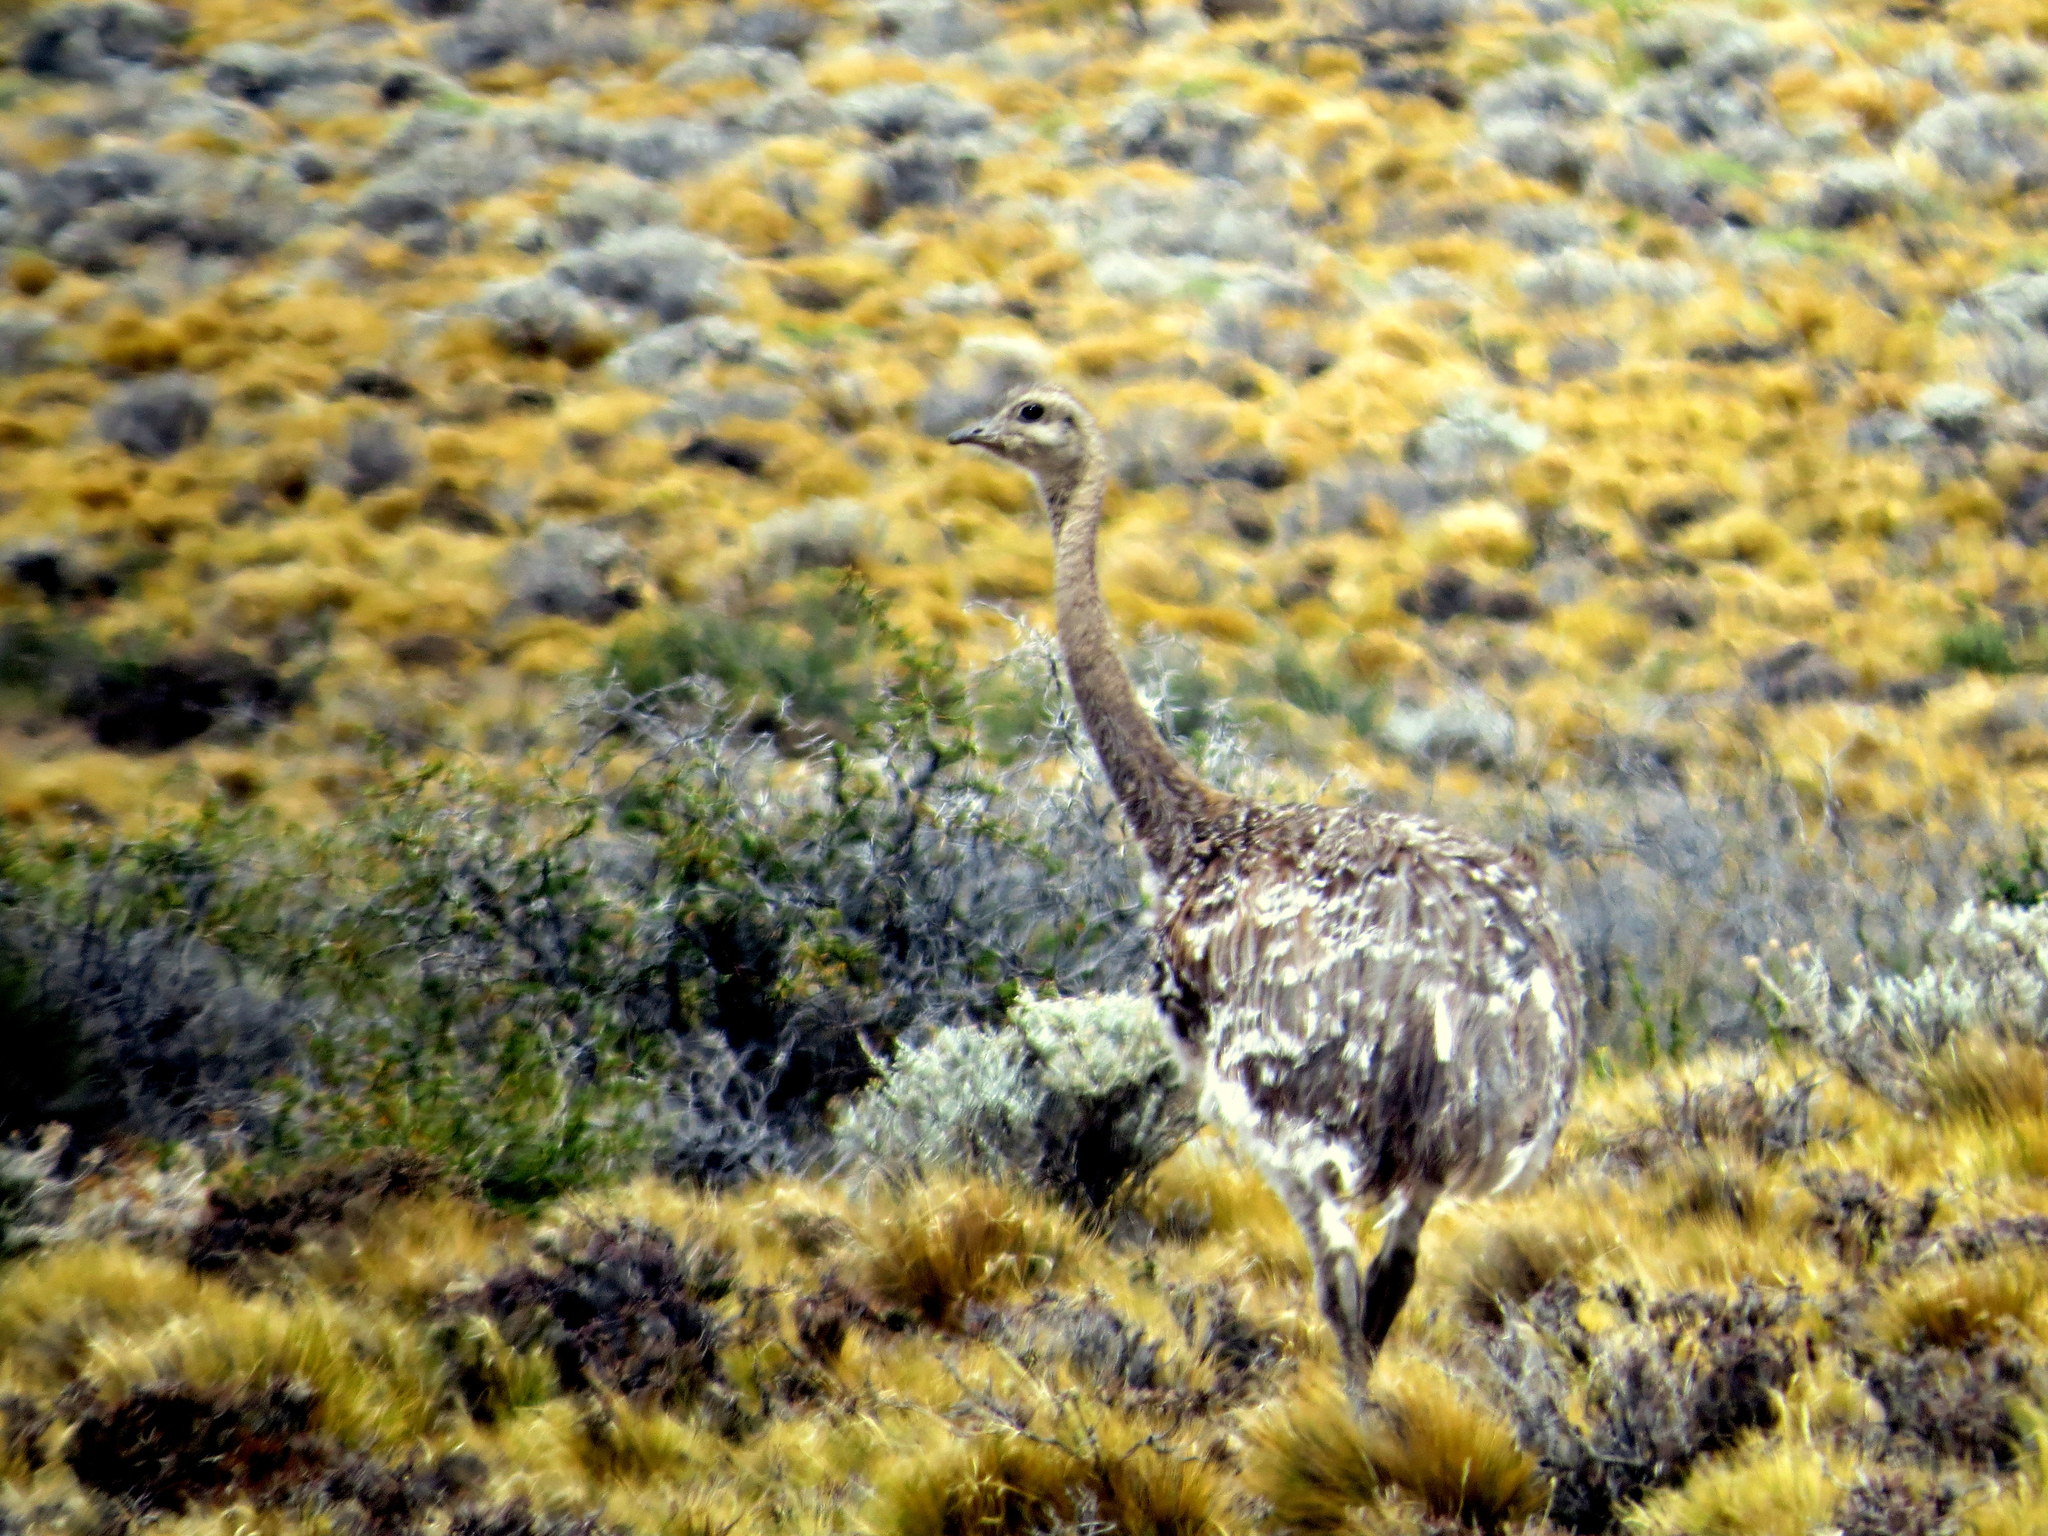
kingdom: Animalia
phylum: Chordata
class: Aves
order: Rheiformes
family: Rheidae
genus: Rhea
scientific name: Rhea pennata
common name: Lesser rhea
